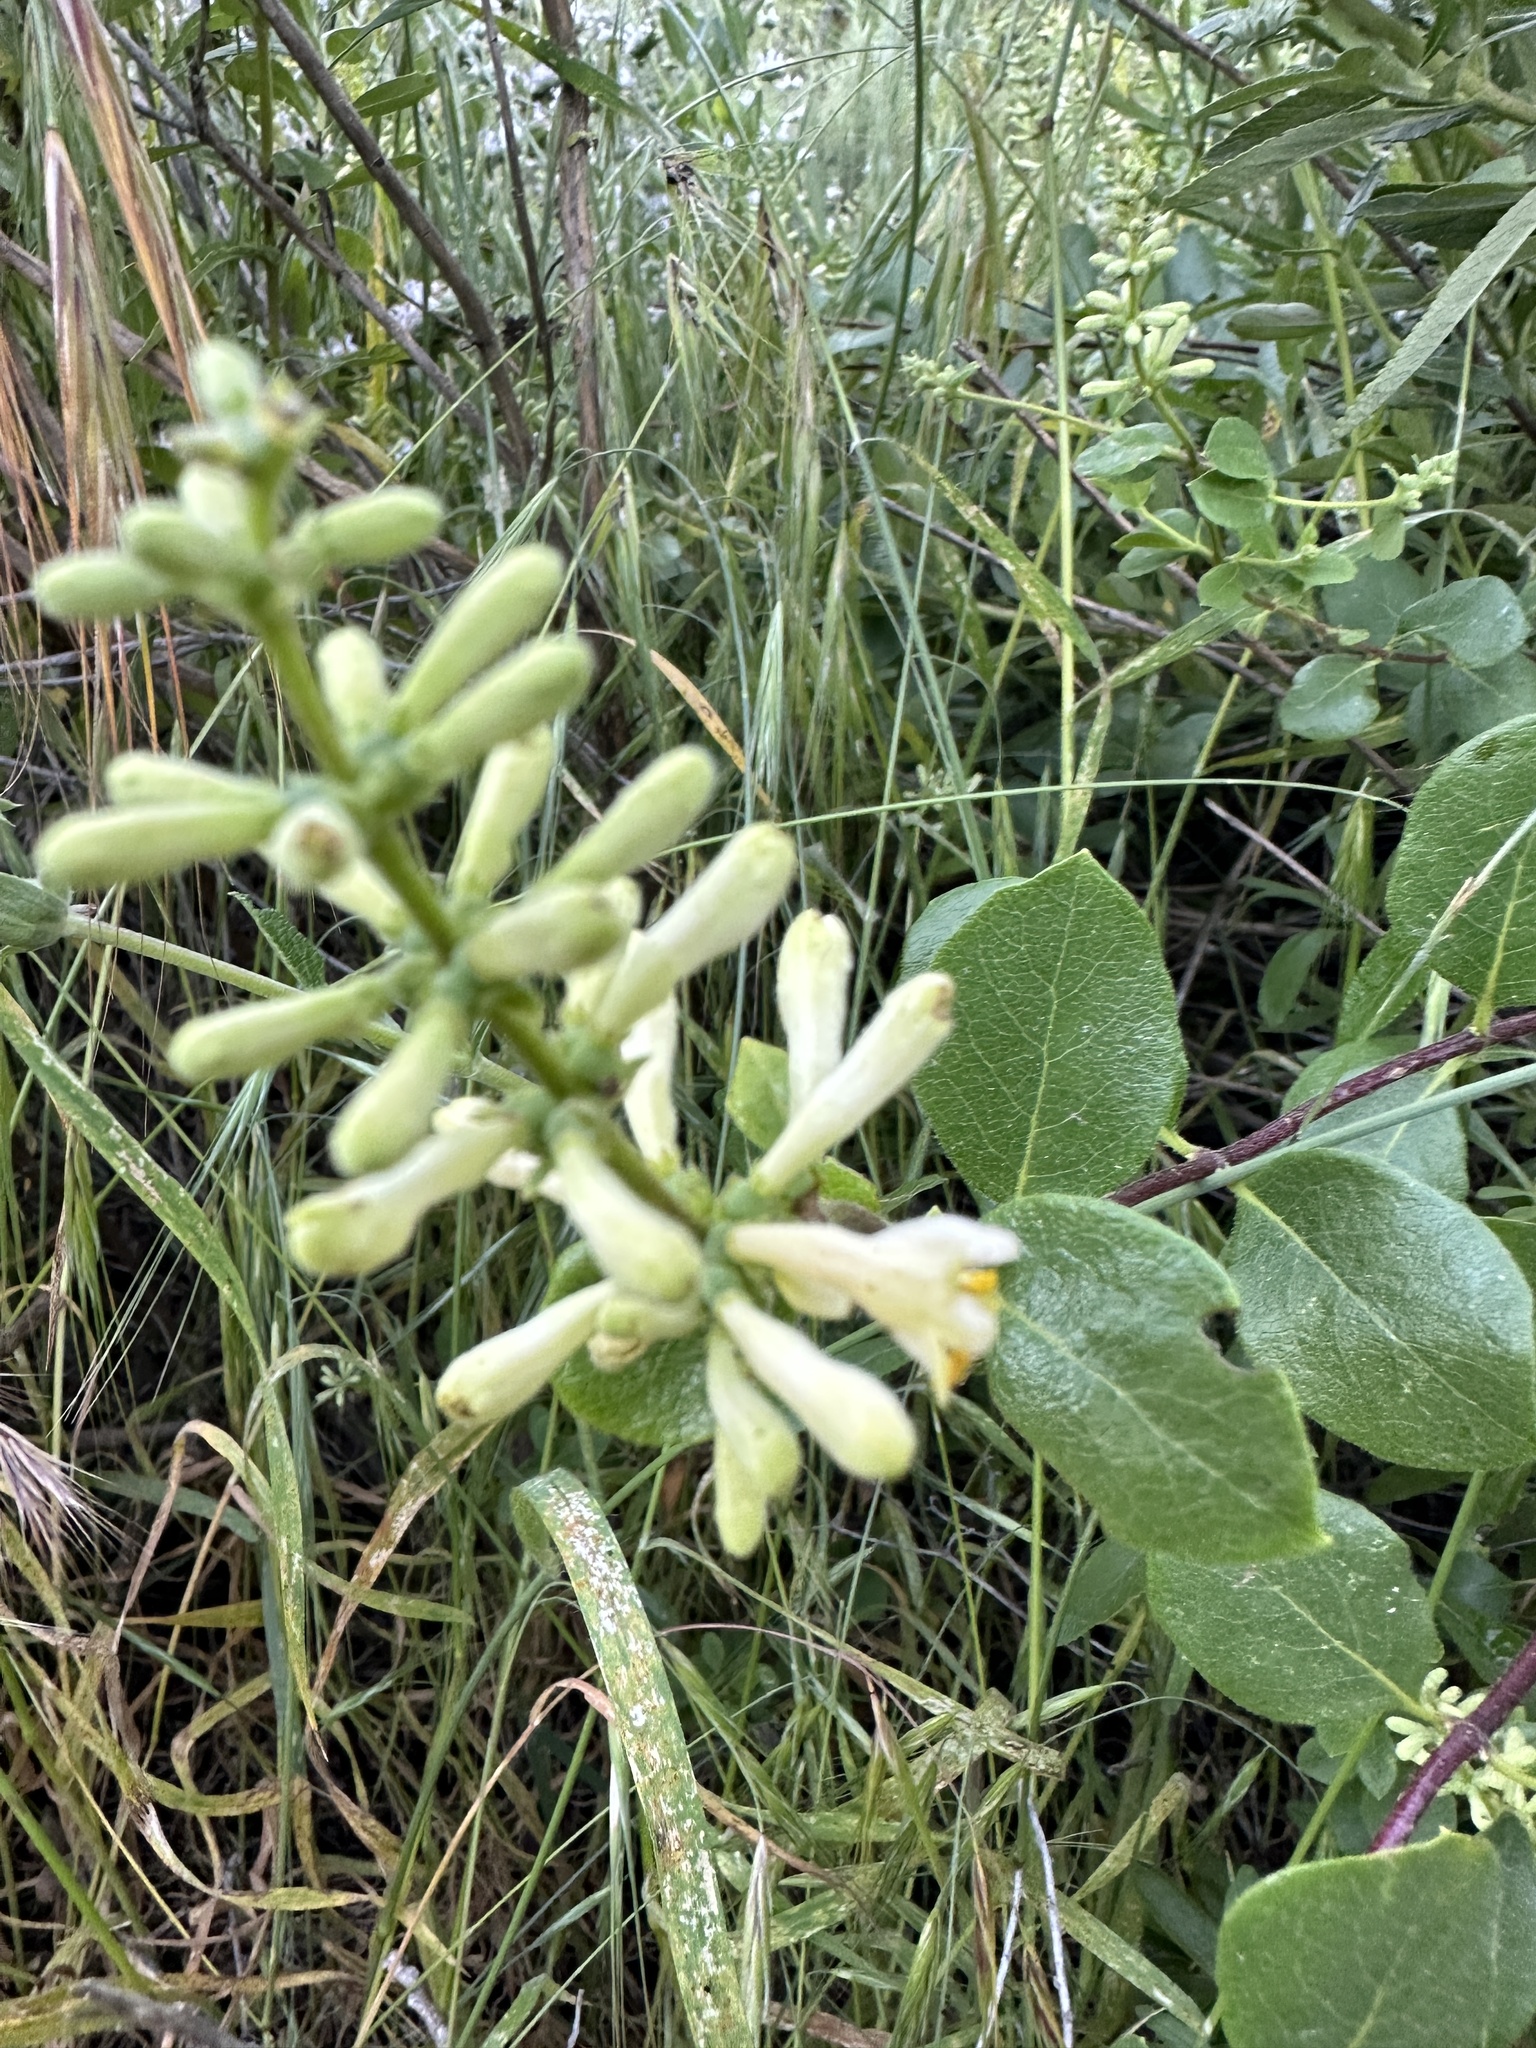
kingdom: Plantae
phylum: Tracheophyta
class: Magnoliopsida
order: Dipsacales
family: Caprifoliaceae
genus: Lonicera
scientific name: Lonicera subspicata
